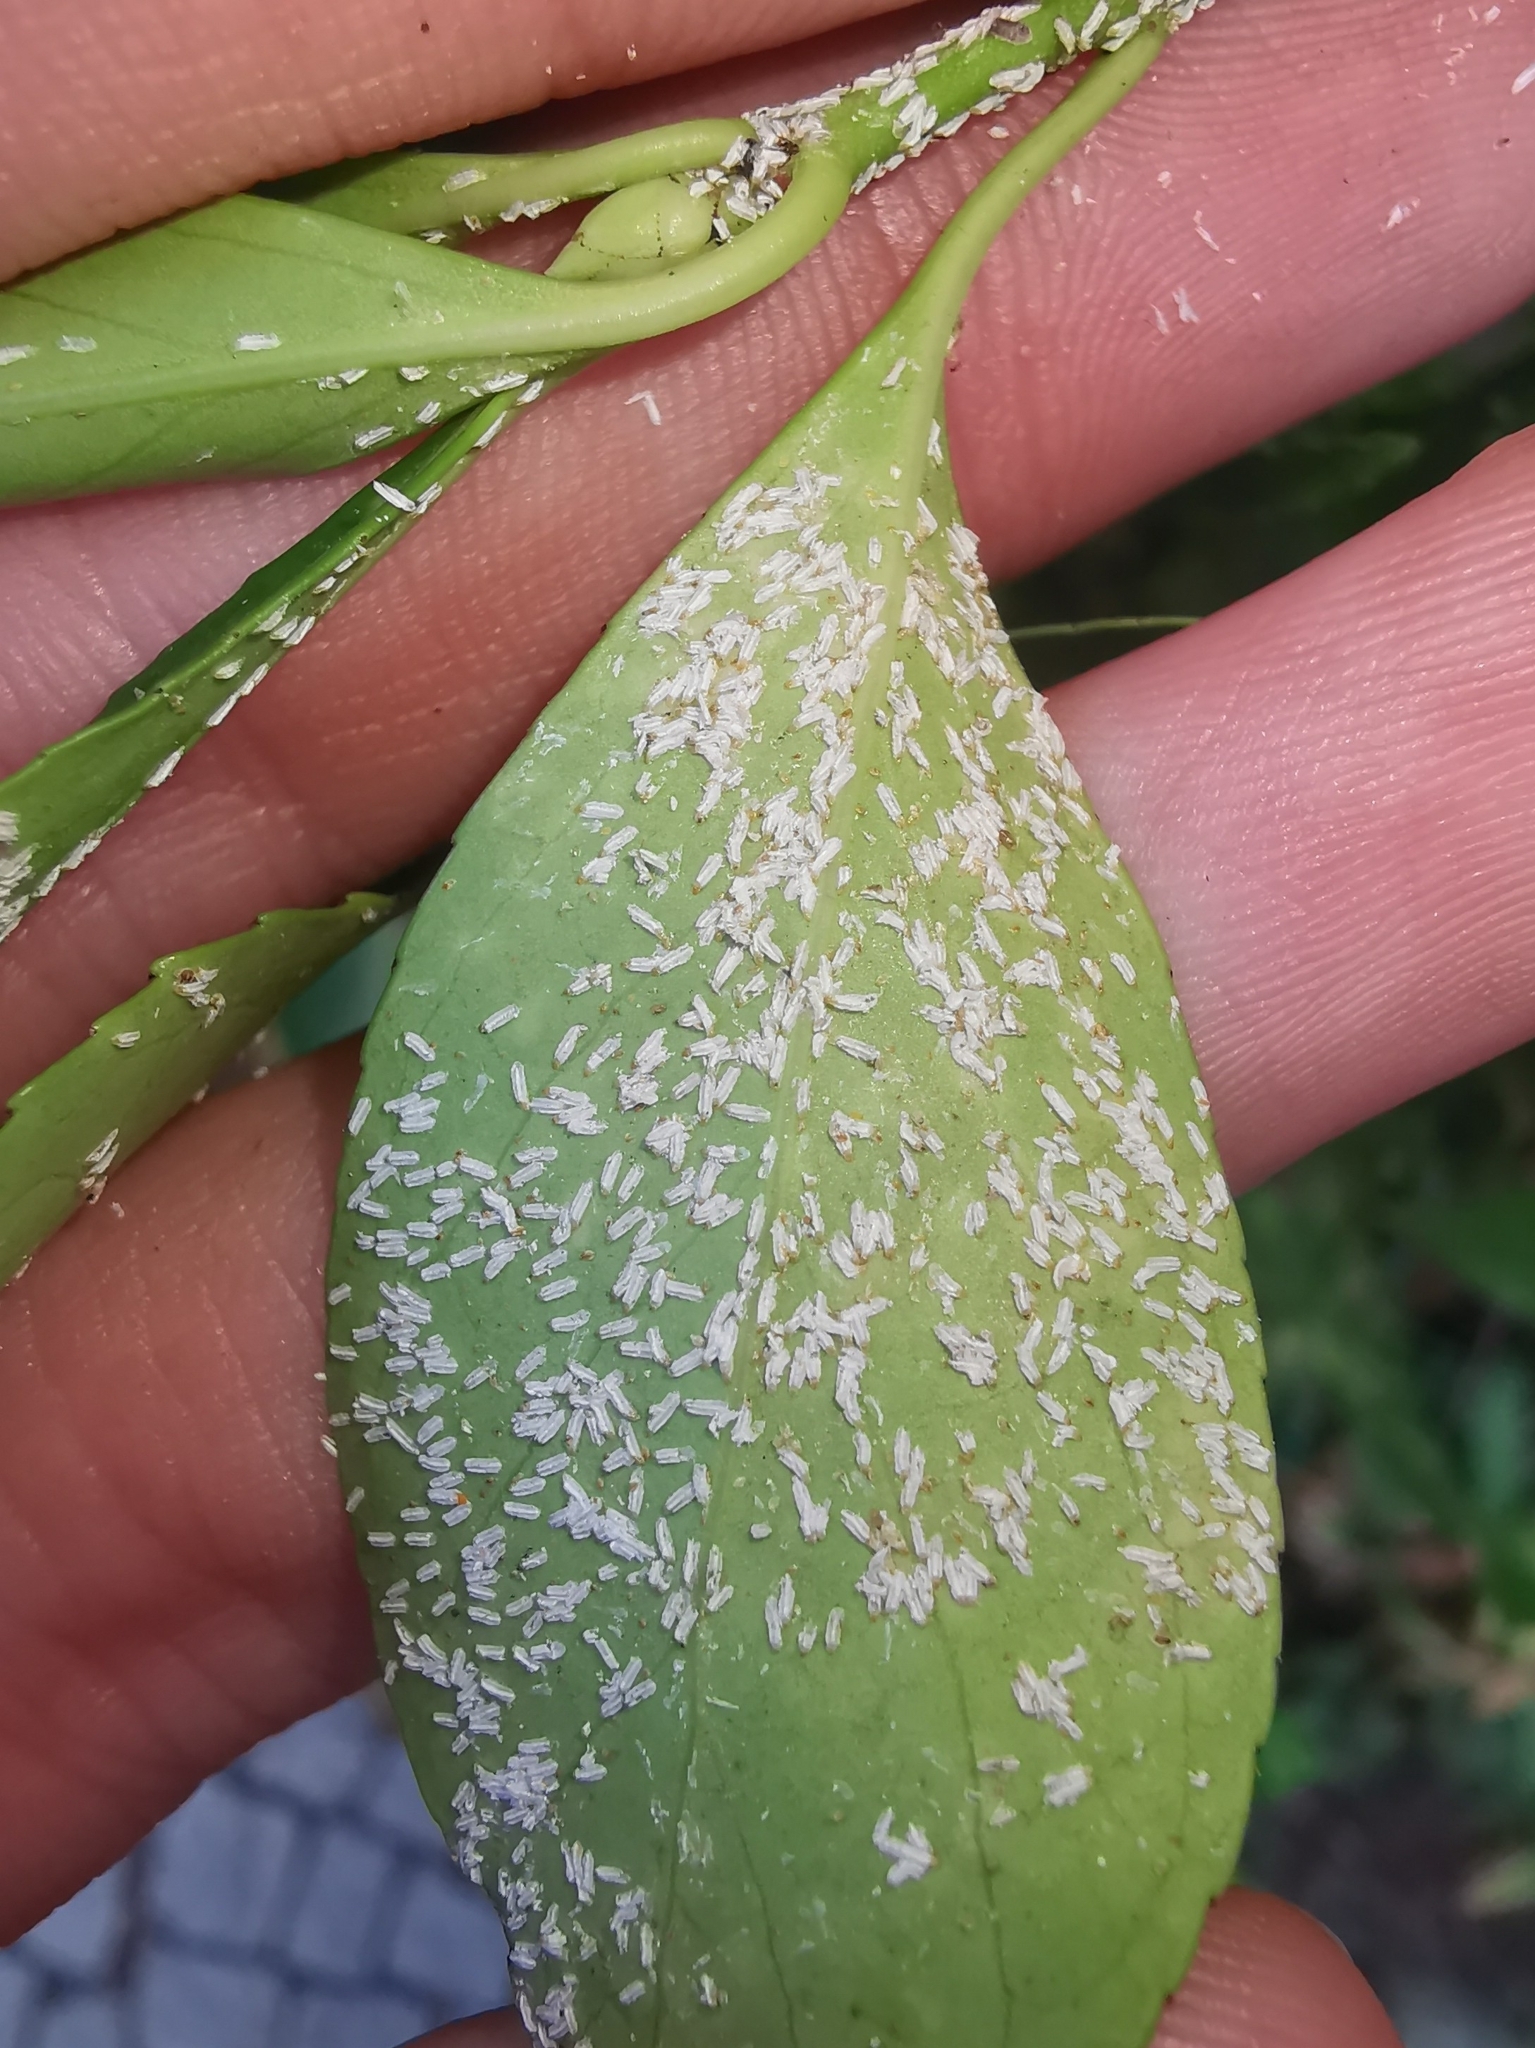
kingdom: Animalia
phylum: Arthropoda
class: Insecta
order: Hemiptera
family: Diaspididae
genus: Unaspis
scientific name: Unaspis euonymi
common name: Euonymus scale
